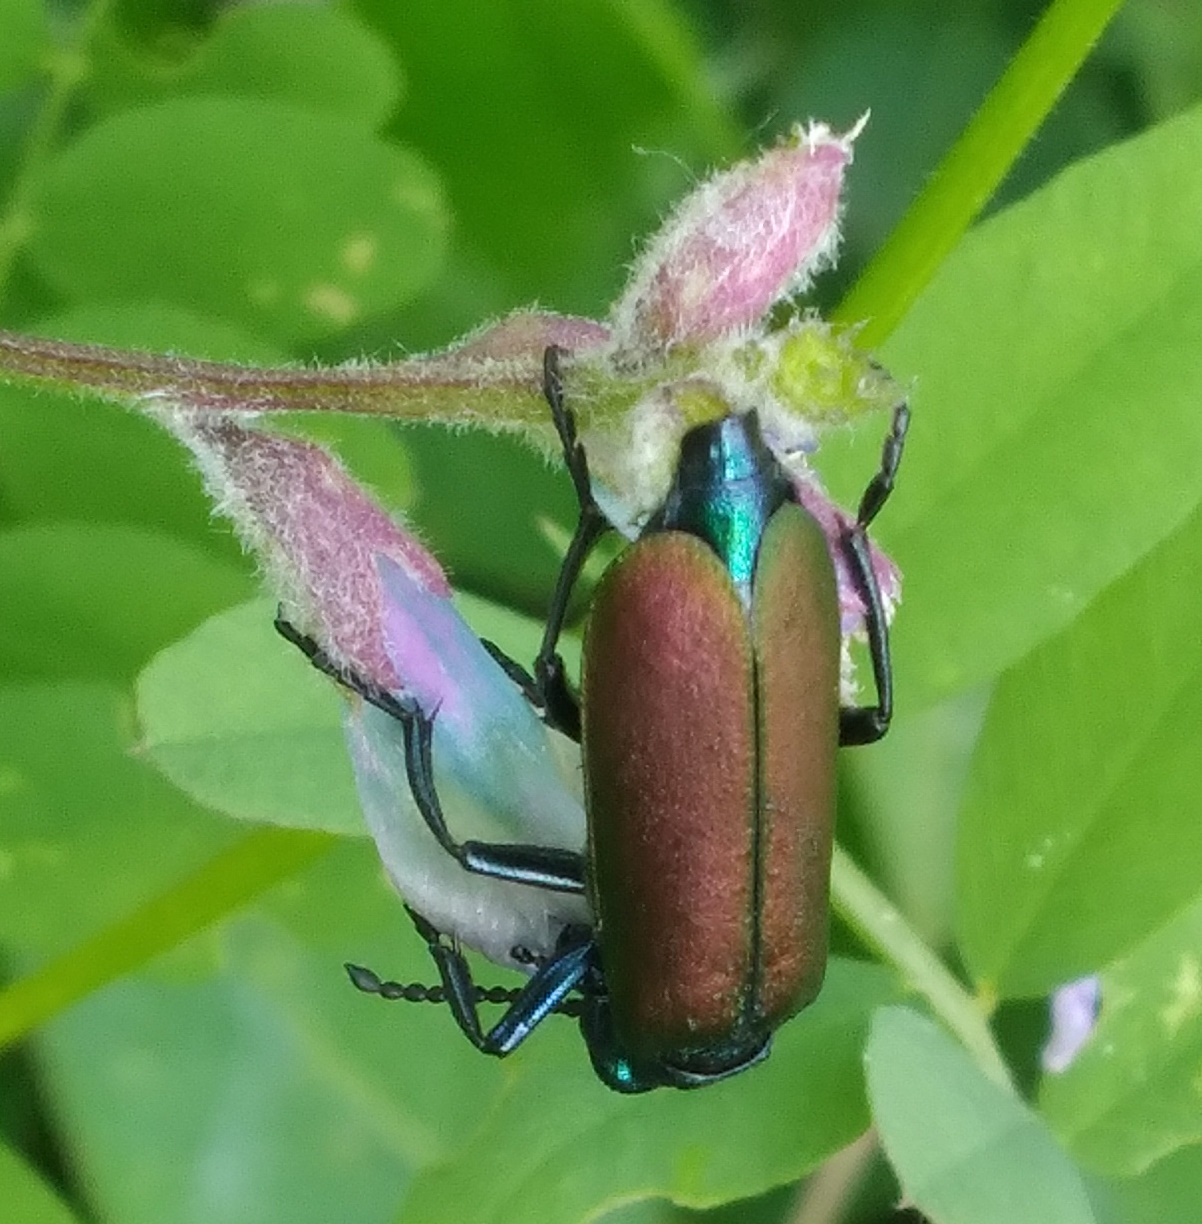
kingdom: Animalia
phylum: Arthropoda
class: Insecta
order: Coleoptera
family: Meloidae
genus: Lytta
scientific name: Lytta nuttallii
